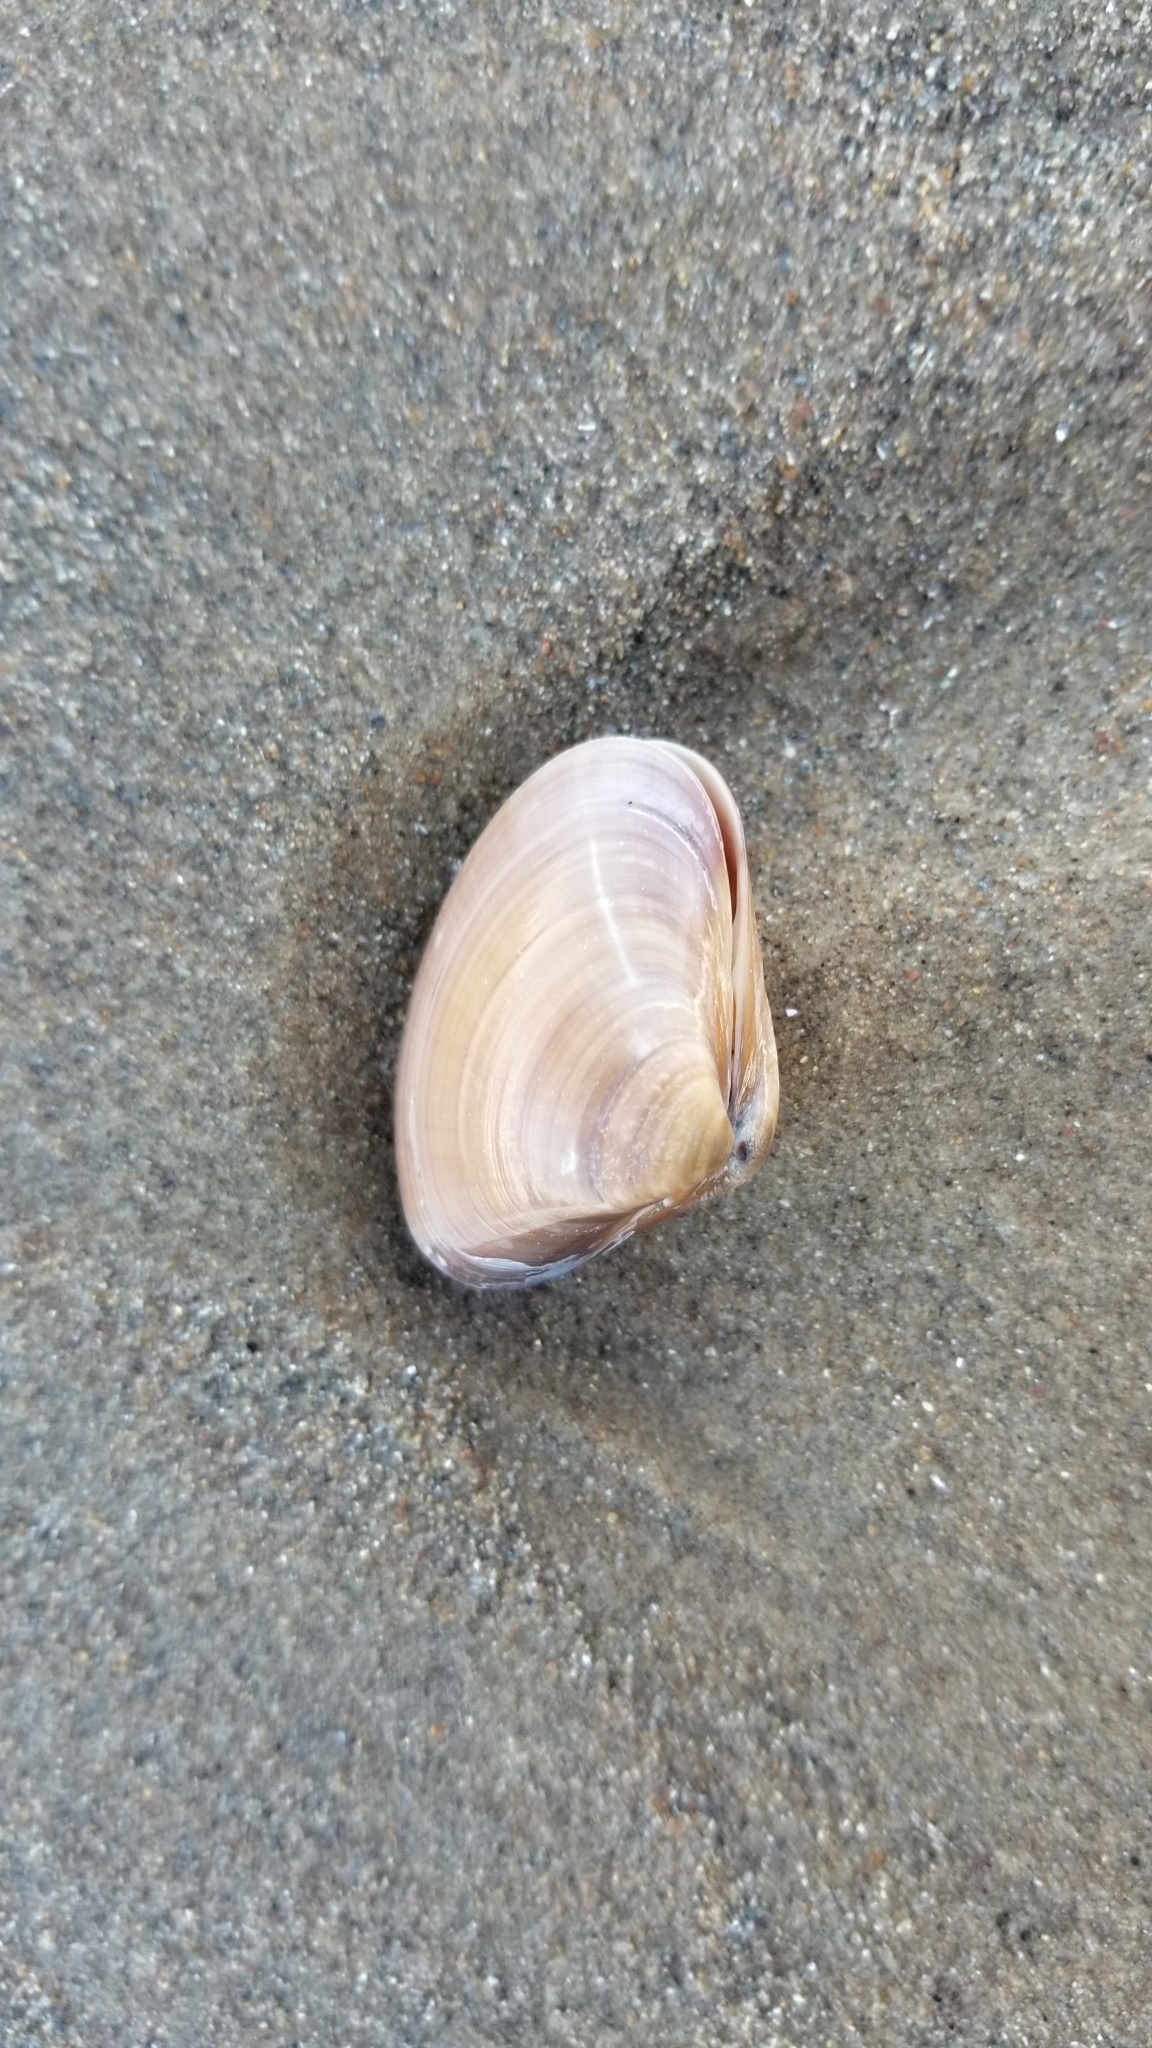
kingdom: Animalia
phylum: Mollusca
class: Bivalvia
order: Venerida
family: Veneridae
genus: Tivela
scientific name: Tivela stultorum
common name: Pismo clam
